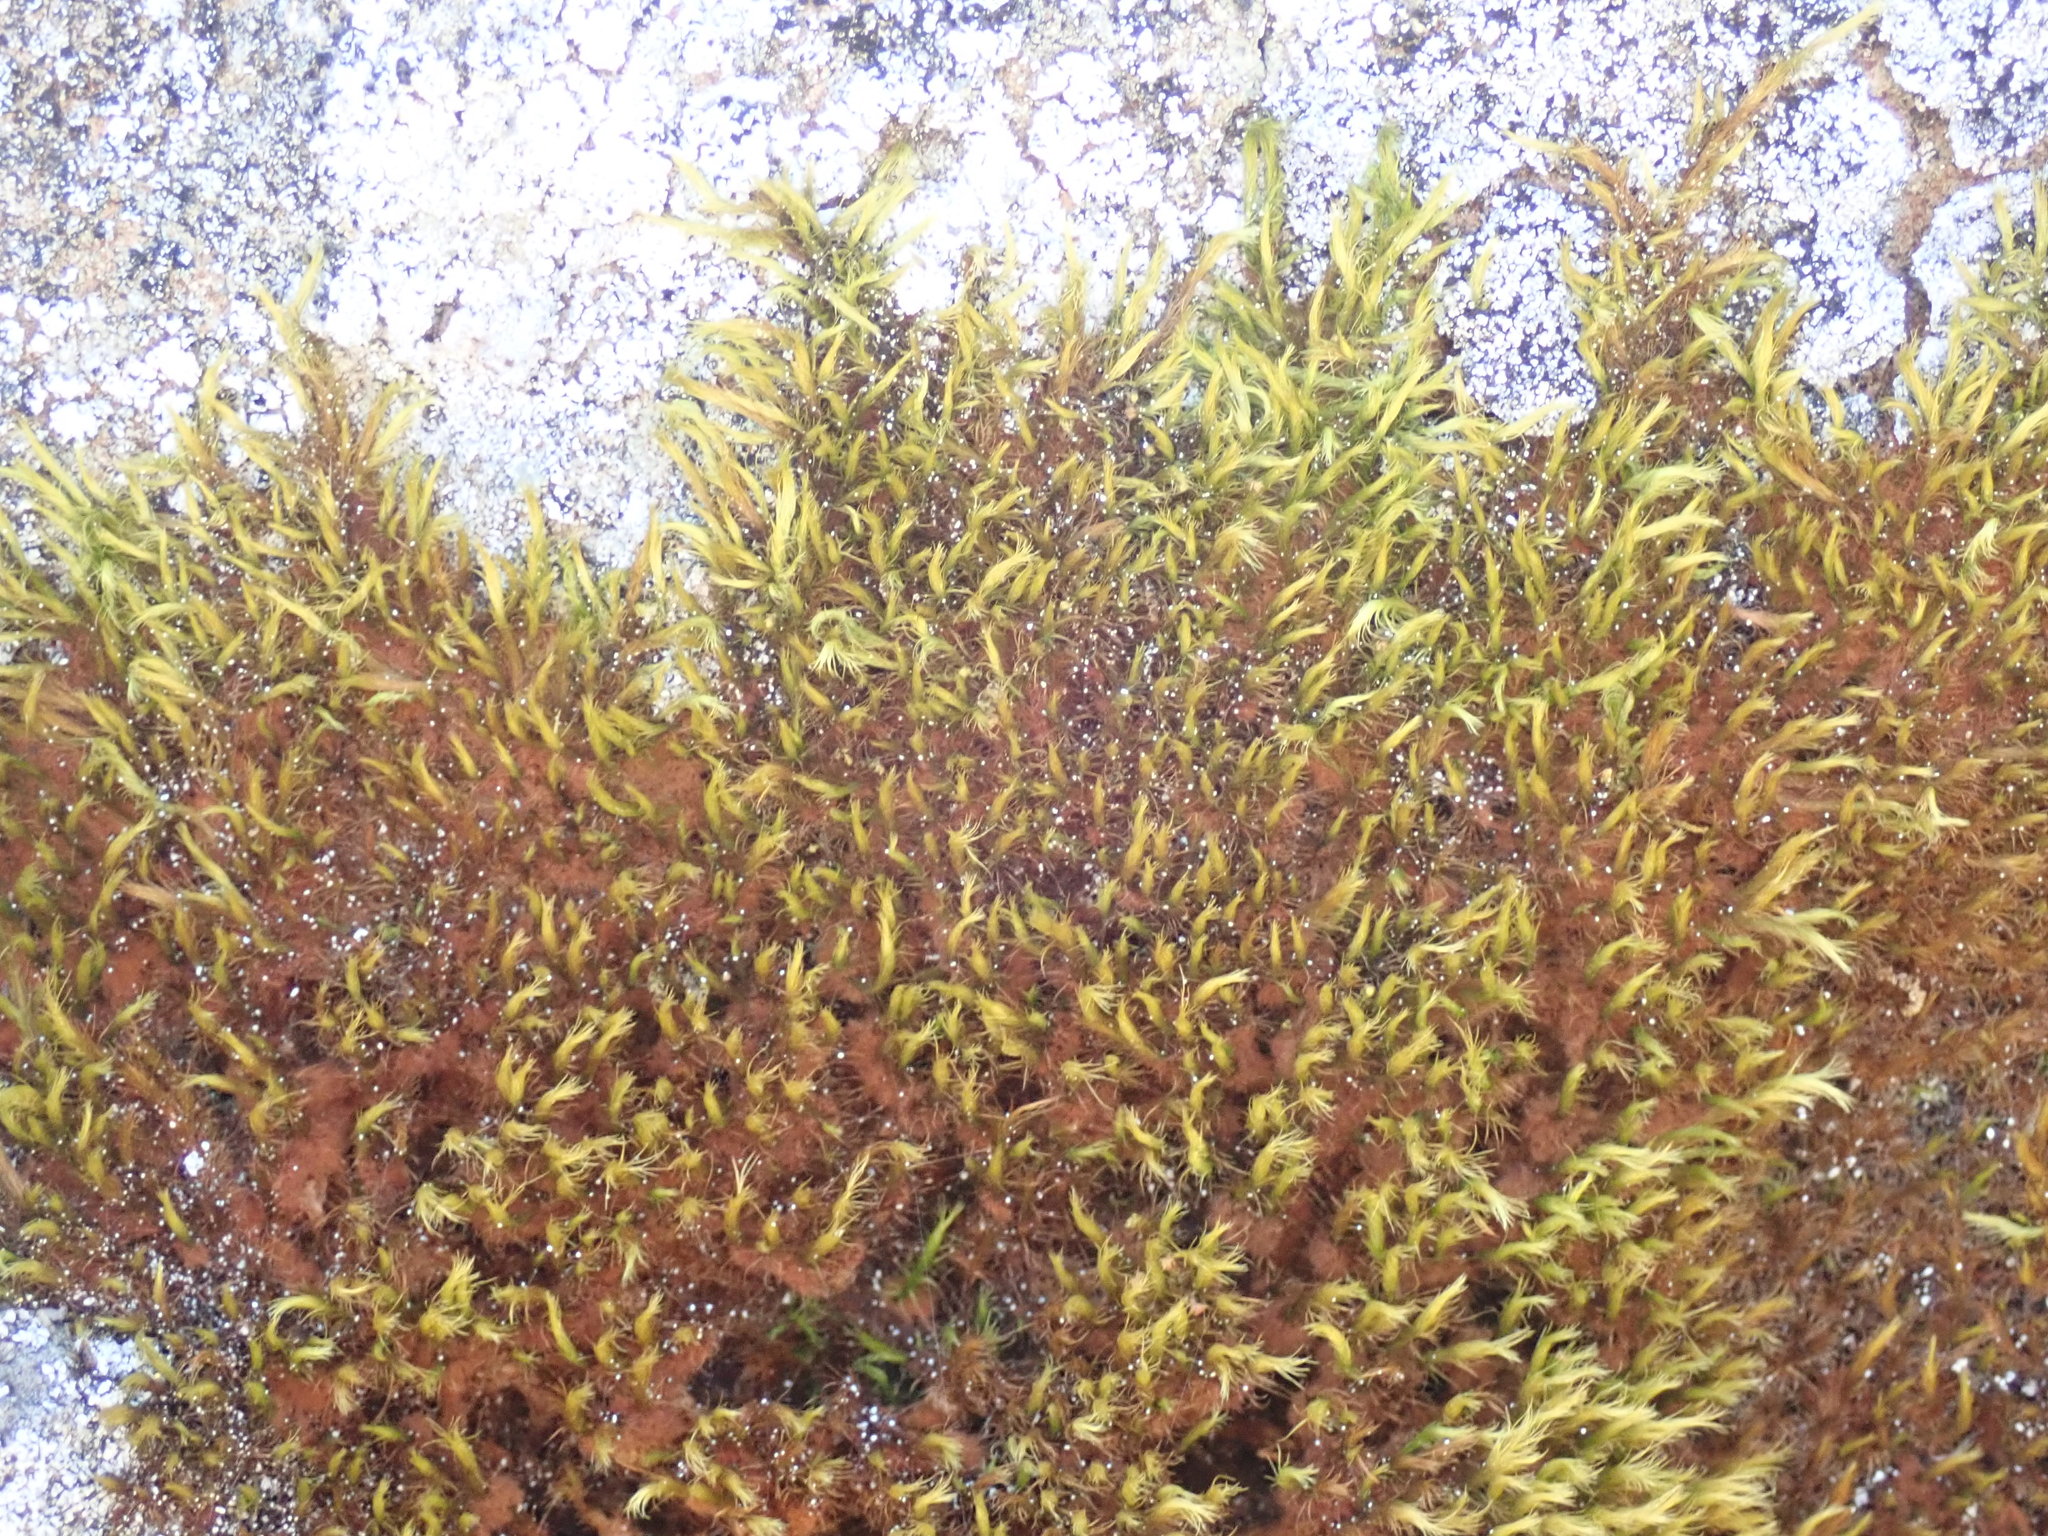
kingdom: Plantae
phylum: Bryophyta
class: Bryopsida
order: Bartramiales
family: Bartramiaceae
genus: Anacolia
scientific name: Anacolia menziesii
